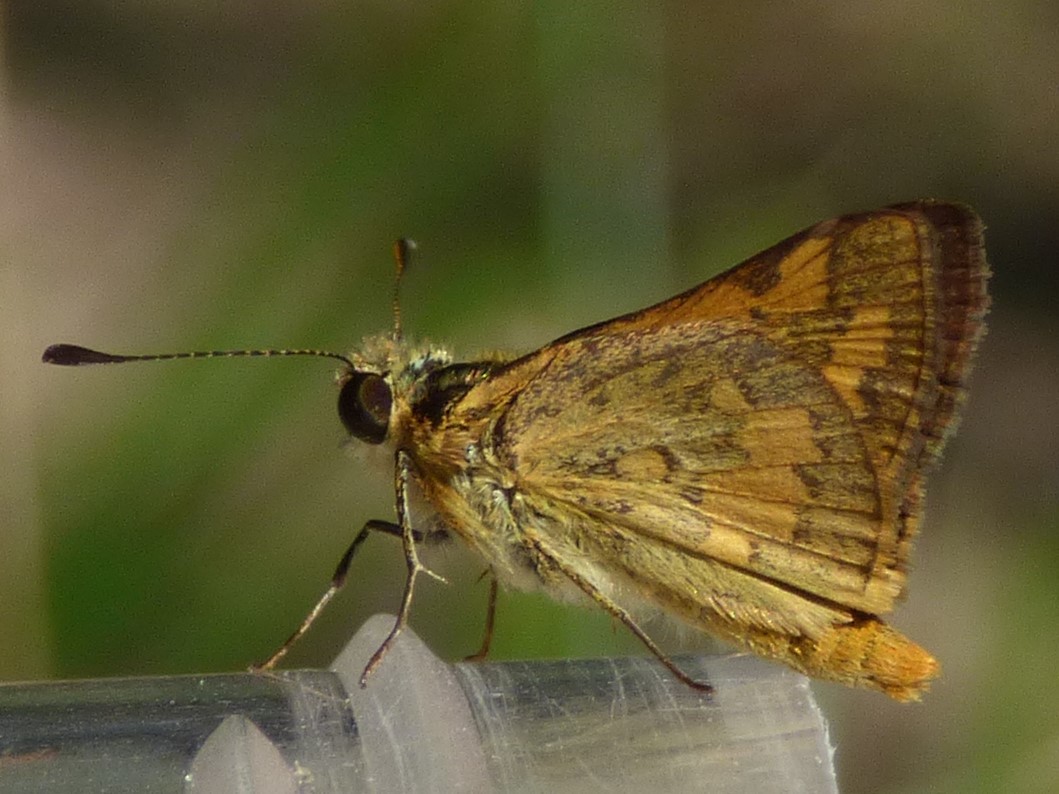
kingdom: Animalia
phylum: Arthropoda
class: Insecta
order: Lepidoptera
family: Hesperiidae
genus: Ocybadistes
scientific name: Ocybadistes walkeri
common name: Yellow-banded dart
